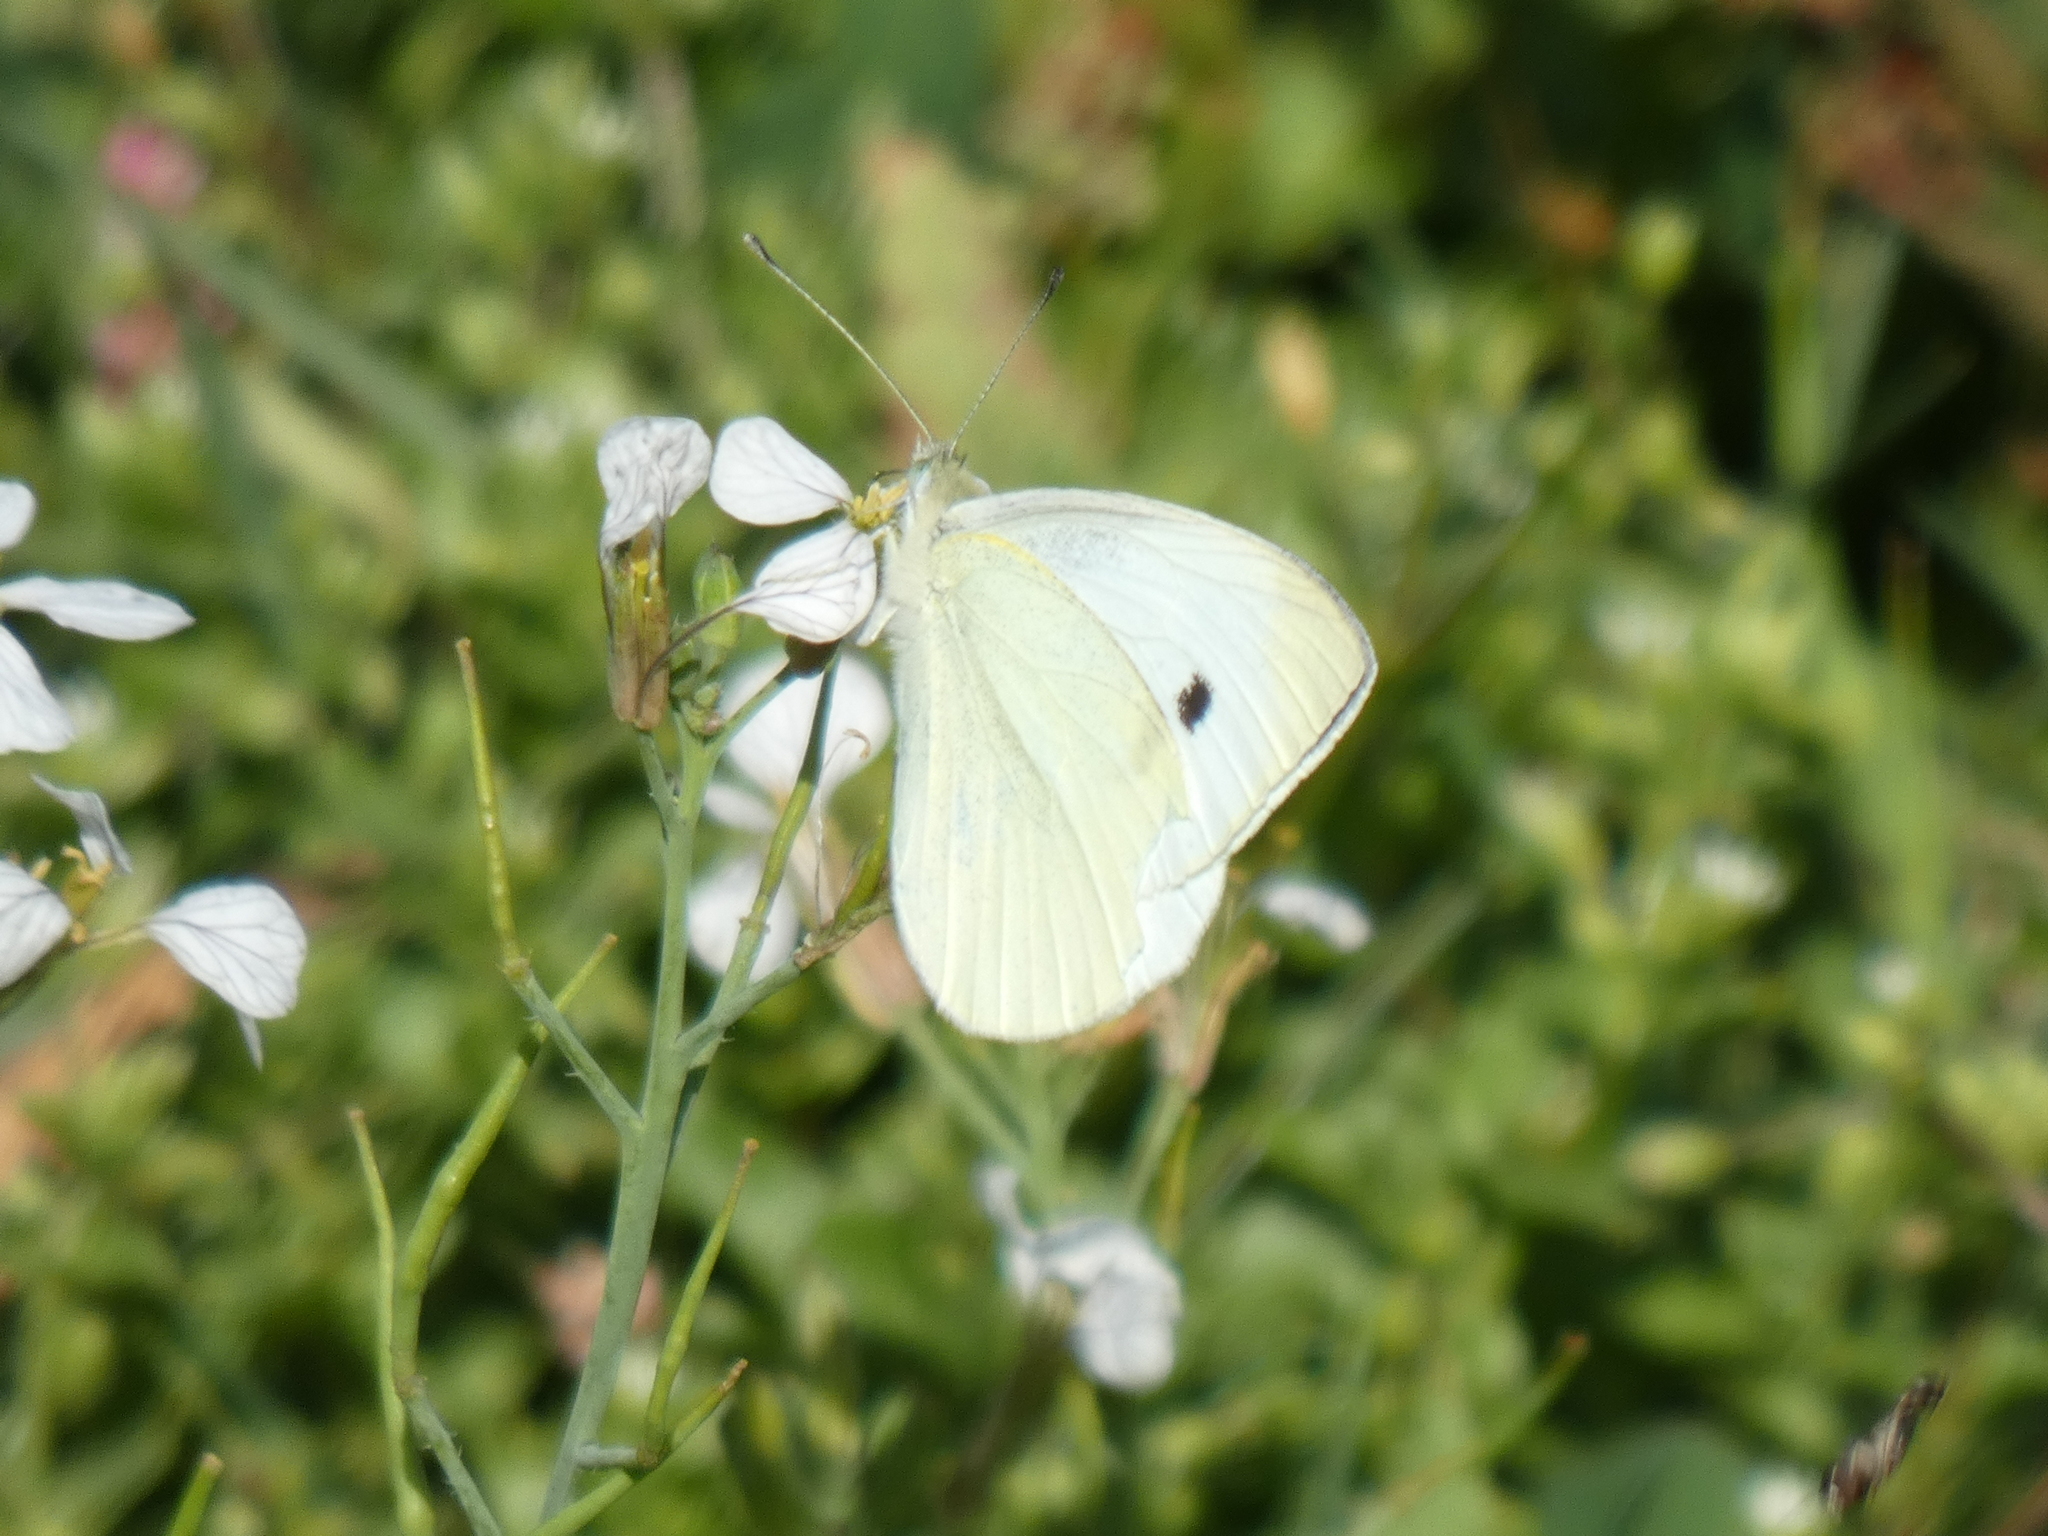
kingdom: Animalia
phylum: Arthropoda
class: Insecta
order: Lepidoptera
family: Pieridae
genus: Pieris
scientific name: Pieris rapae
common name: Small white
